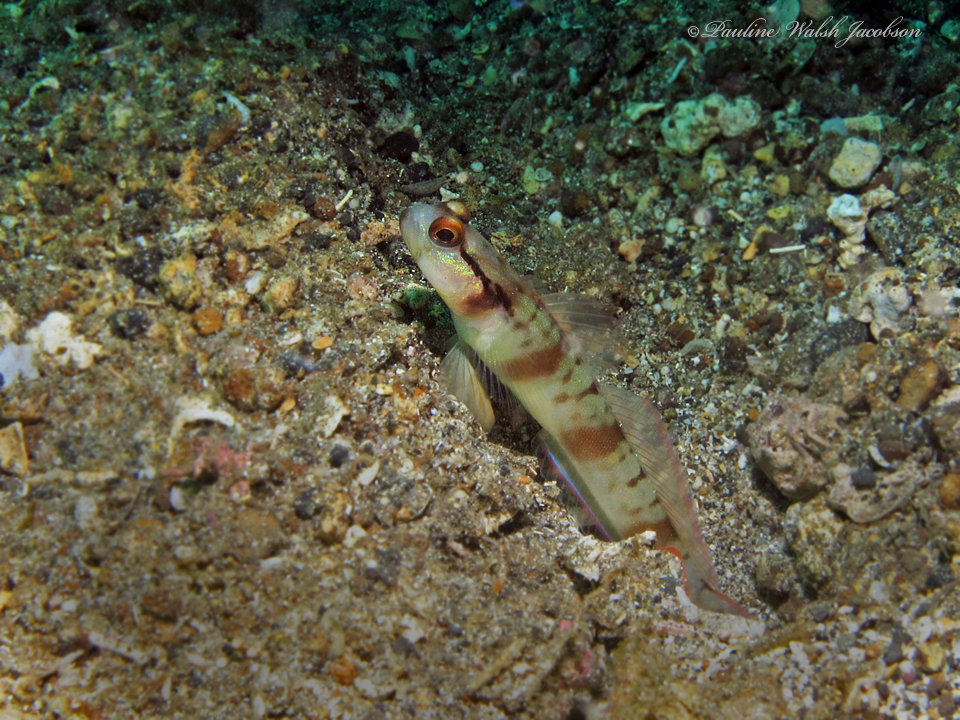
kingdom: Animalia
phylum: Chordata
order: Perciformes
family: Gobiidae
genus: Amblyeleotris
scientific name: Amblyeleotris gymnocephala
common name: Masked shrimpgoby
